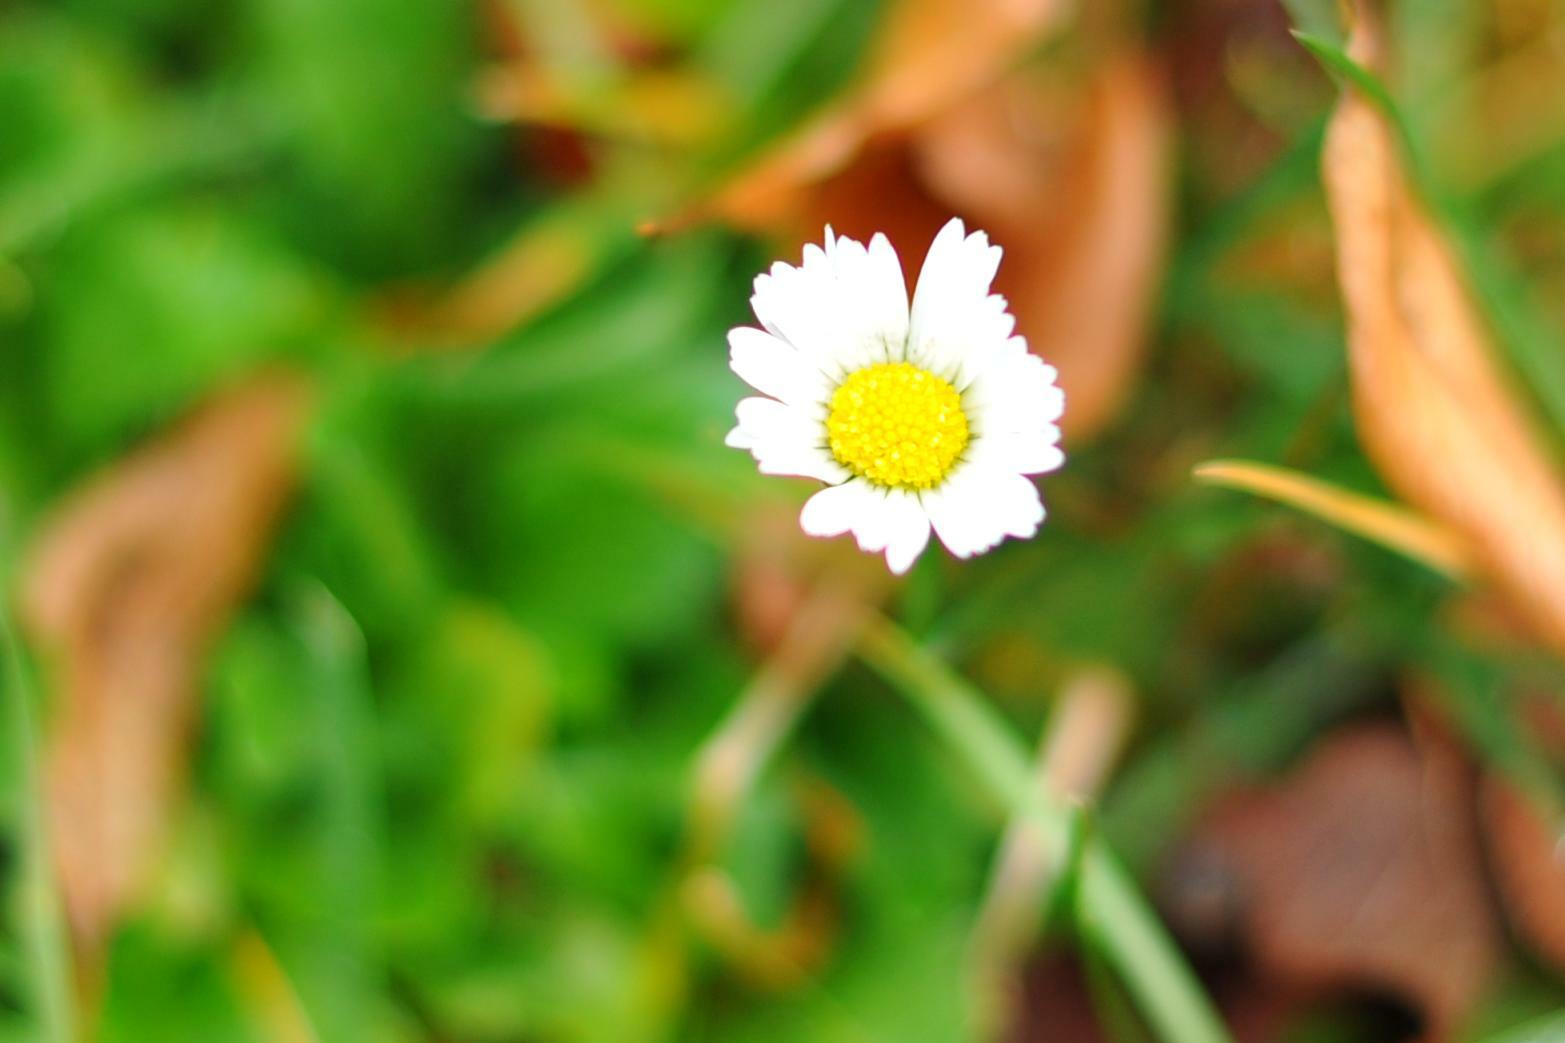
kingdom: Plantae
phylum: Tracheophyta
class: Magnoliopsida
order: Asterales
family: Asteraceae
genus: Bellis
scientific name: Bellis perennis
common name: Lawndaisy
